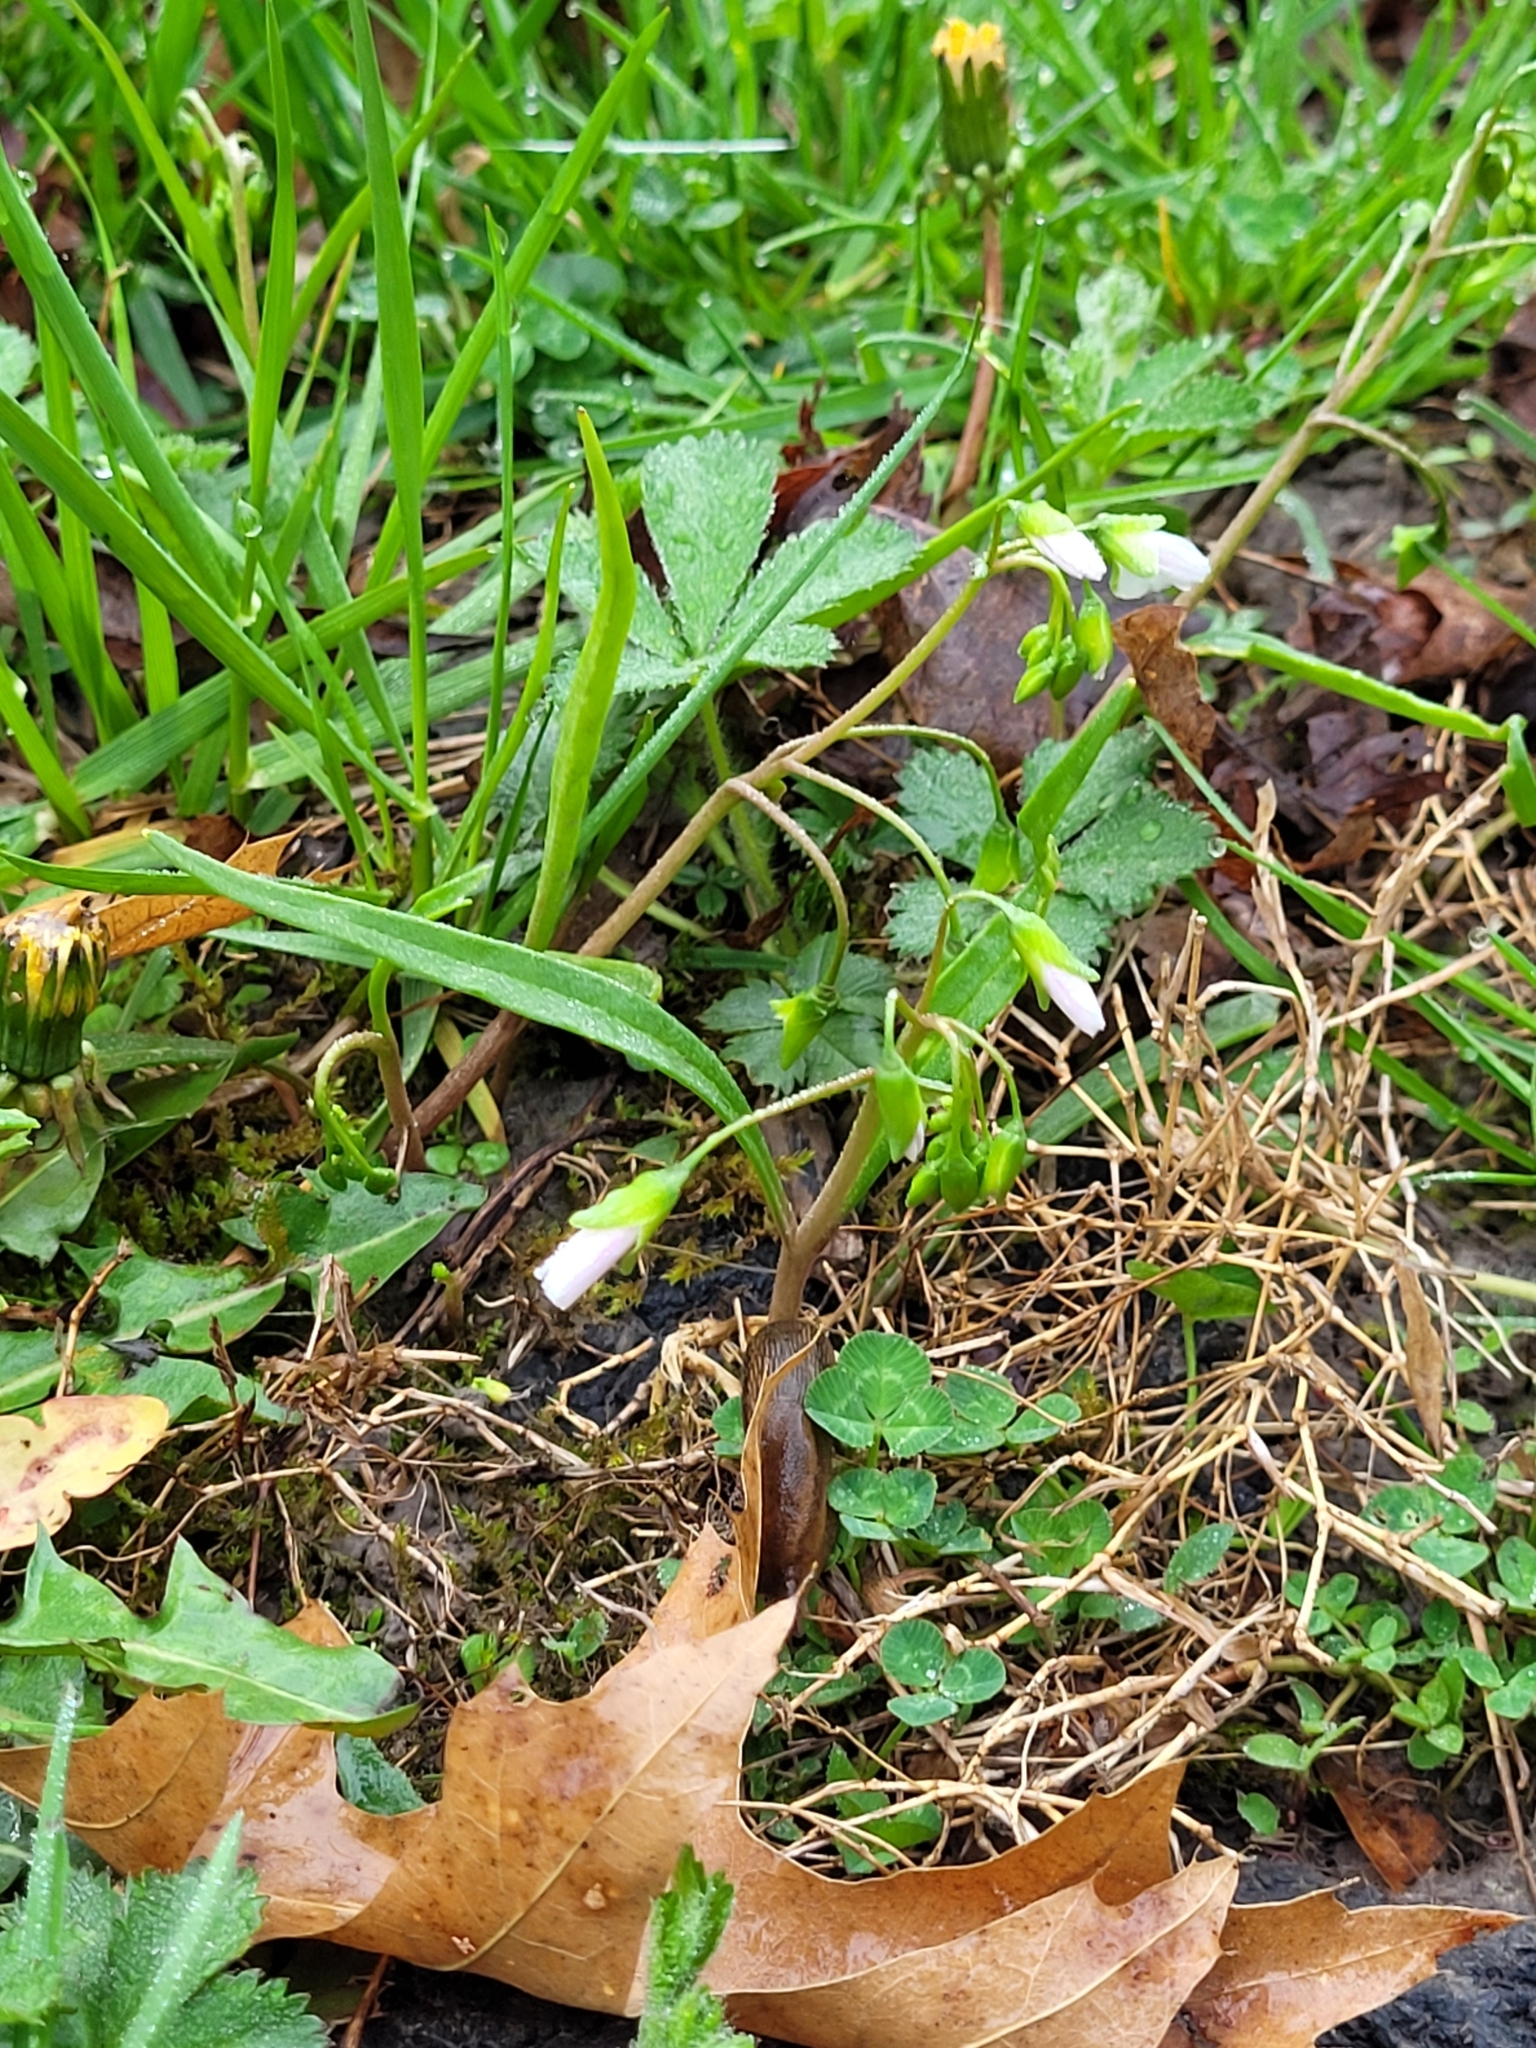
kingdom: Plantae
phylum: Tracheophyta
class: Magnoliopsida
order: Caryophyllales
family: Montiaceae
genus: Claytonia
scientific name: Claytonia virginica
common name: Virginia springbeauty
